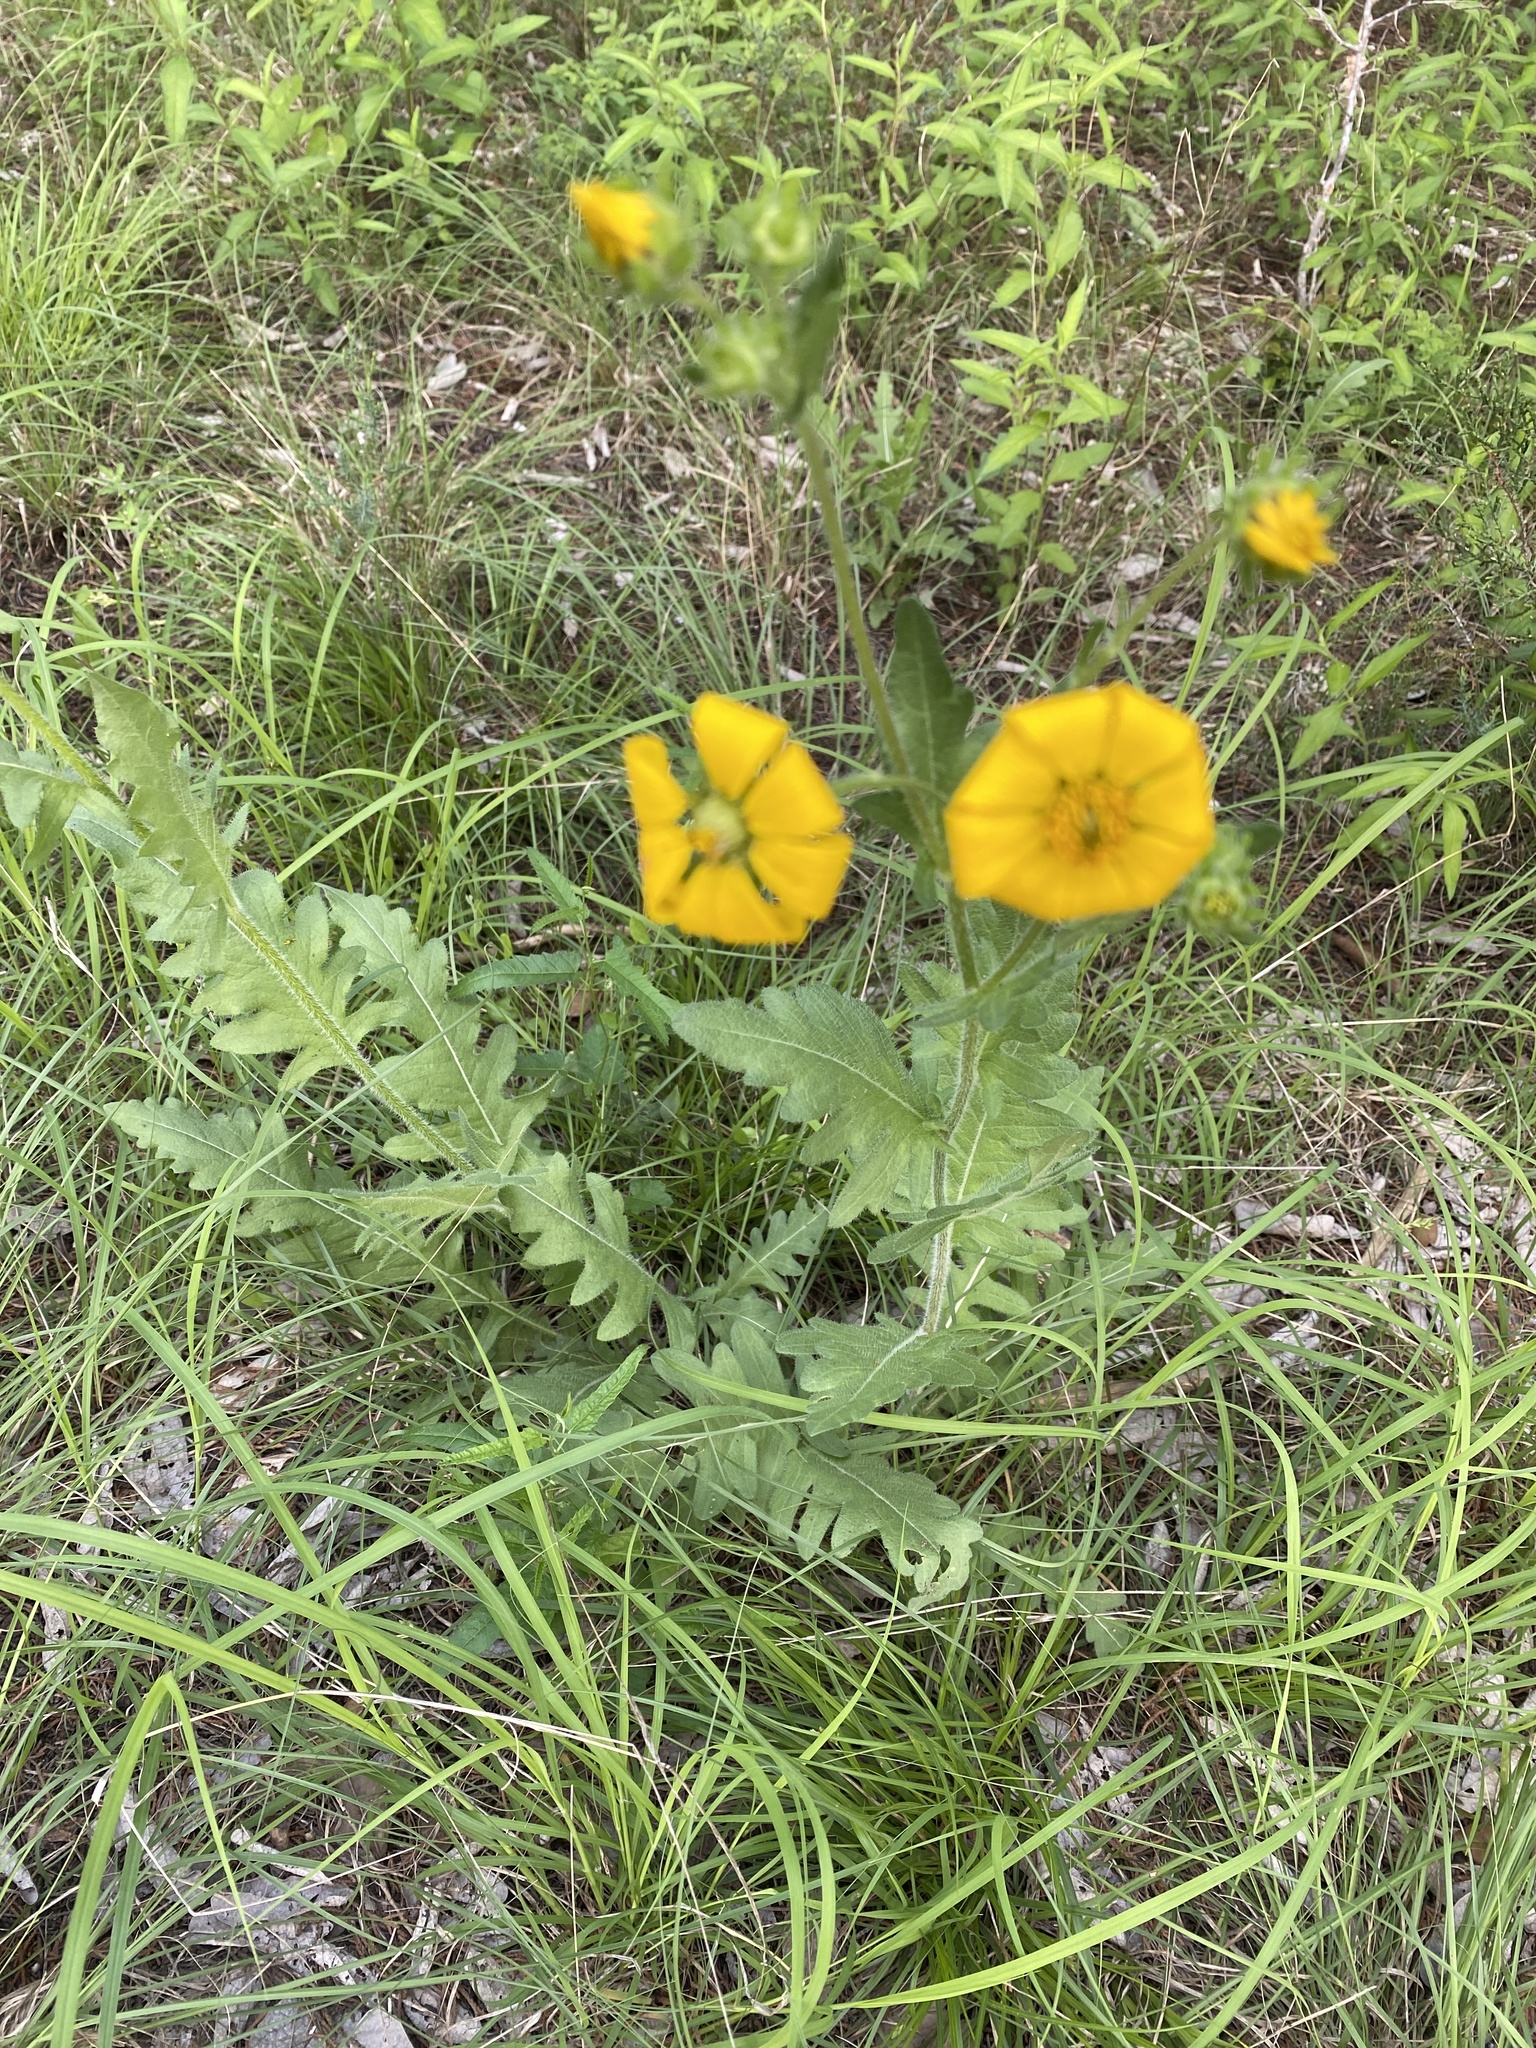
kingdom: Plantae
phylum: Tracheophyta
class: Magnoliopsida
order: Asterales
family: Asteraceae
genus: Engelmannia
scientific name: Engelmannia peristenia
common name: Engelmann's daisy
